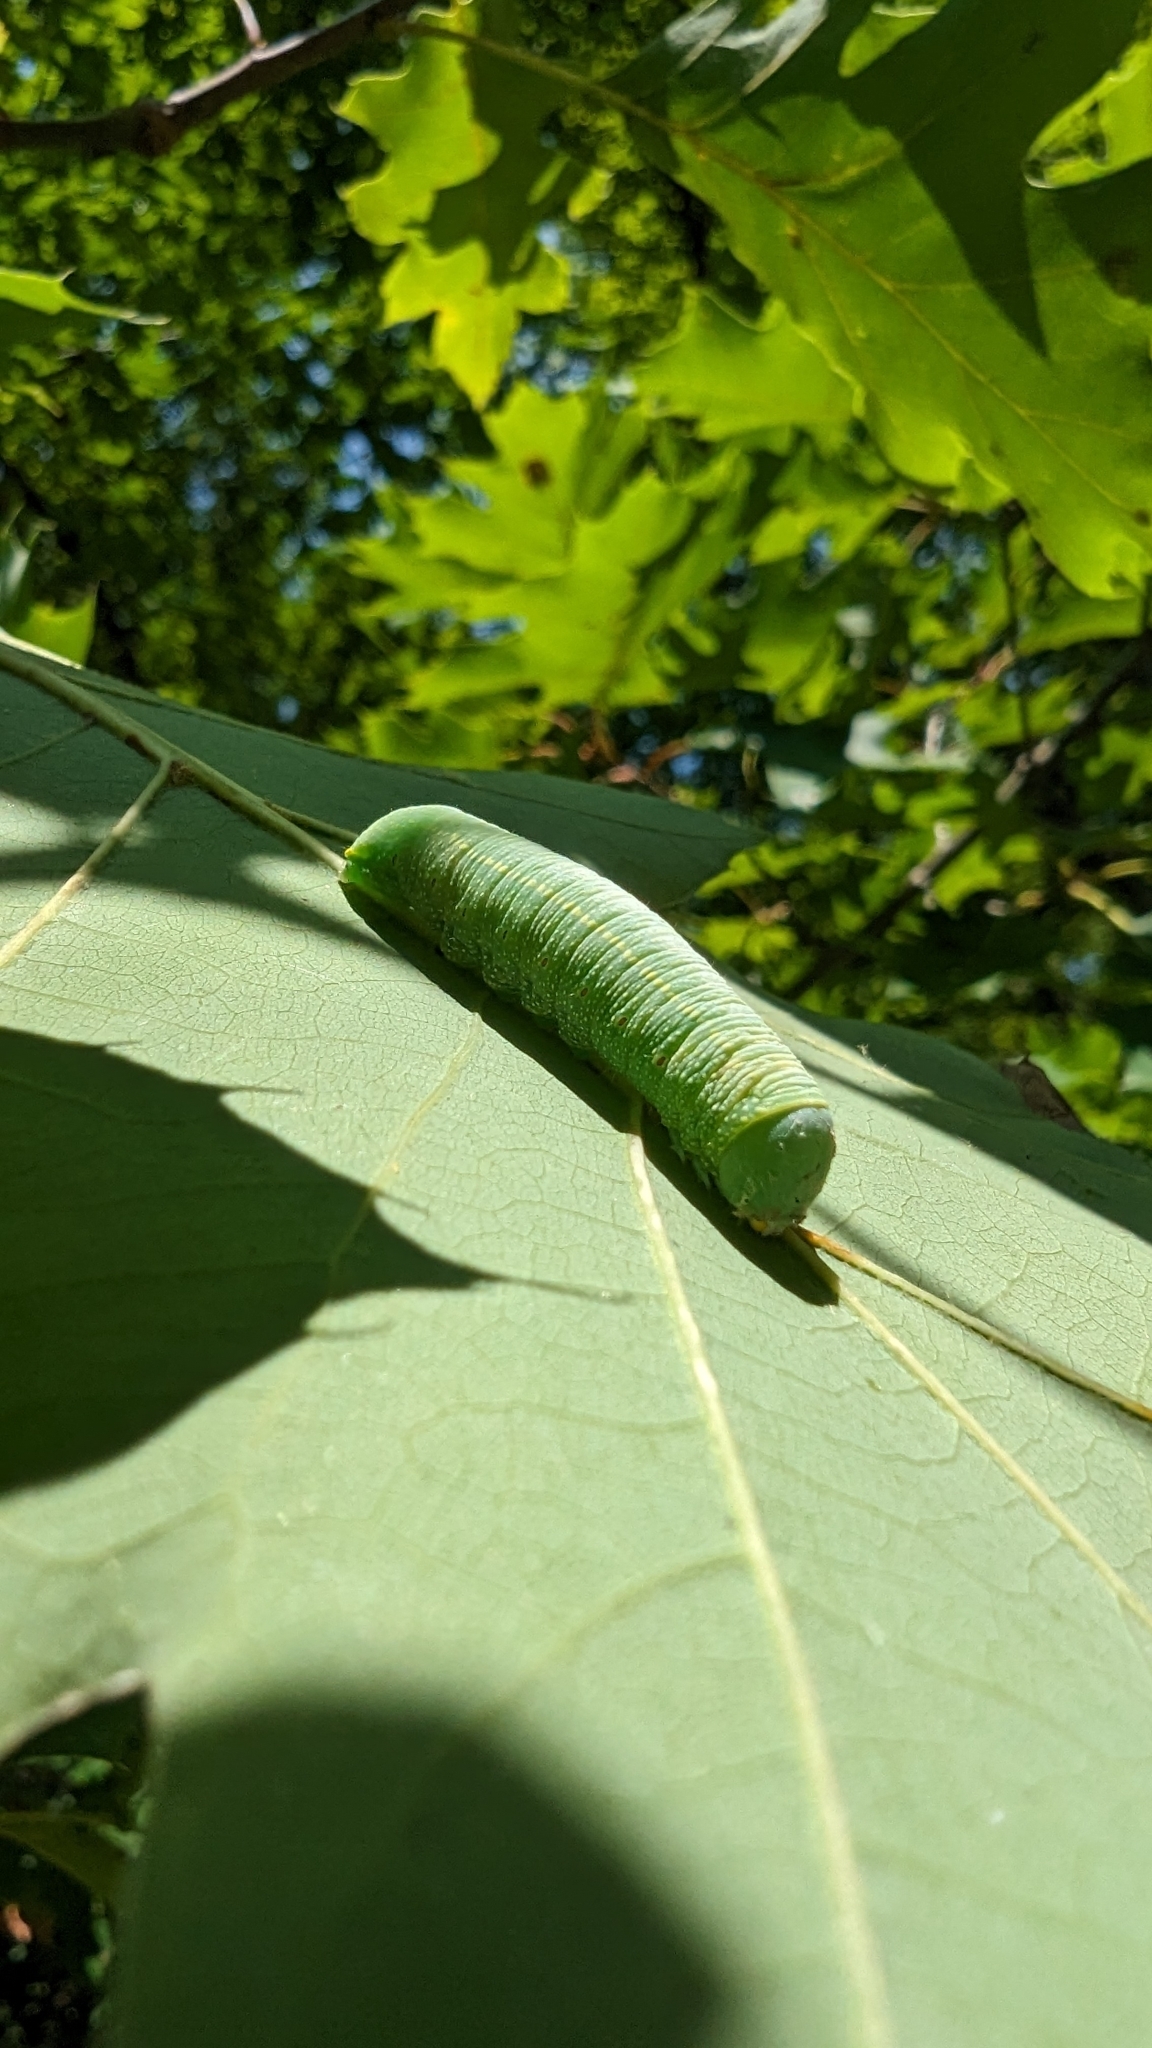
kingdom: Animalia
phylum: Arthropoda
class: Insecta
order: Lepidoptera
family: Notodontidae
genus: Nadata
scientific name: Nadata gibbosa
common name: White-dotted prominent
